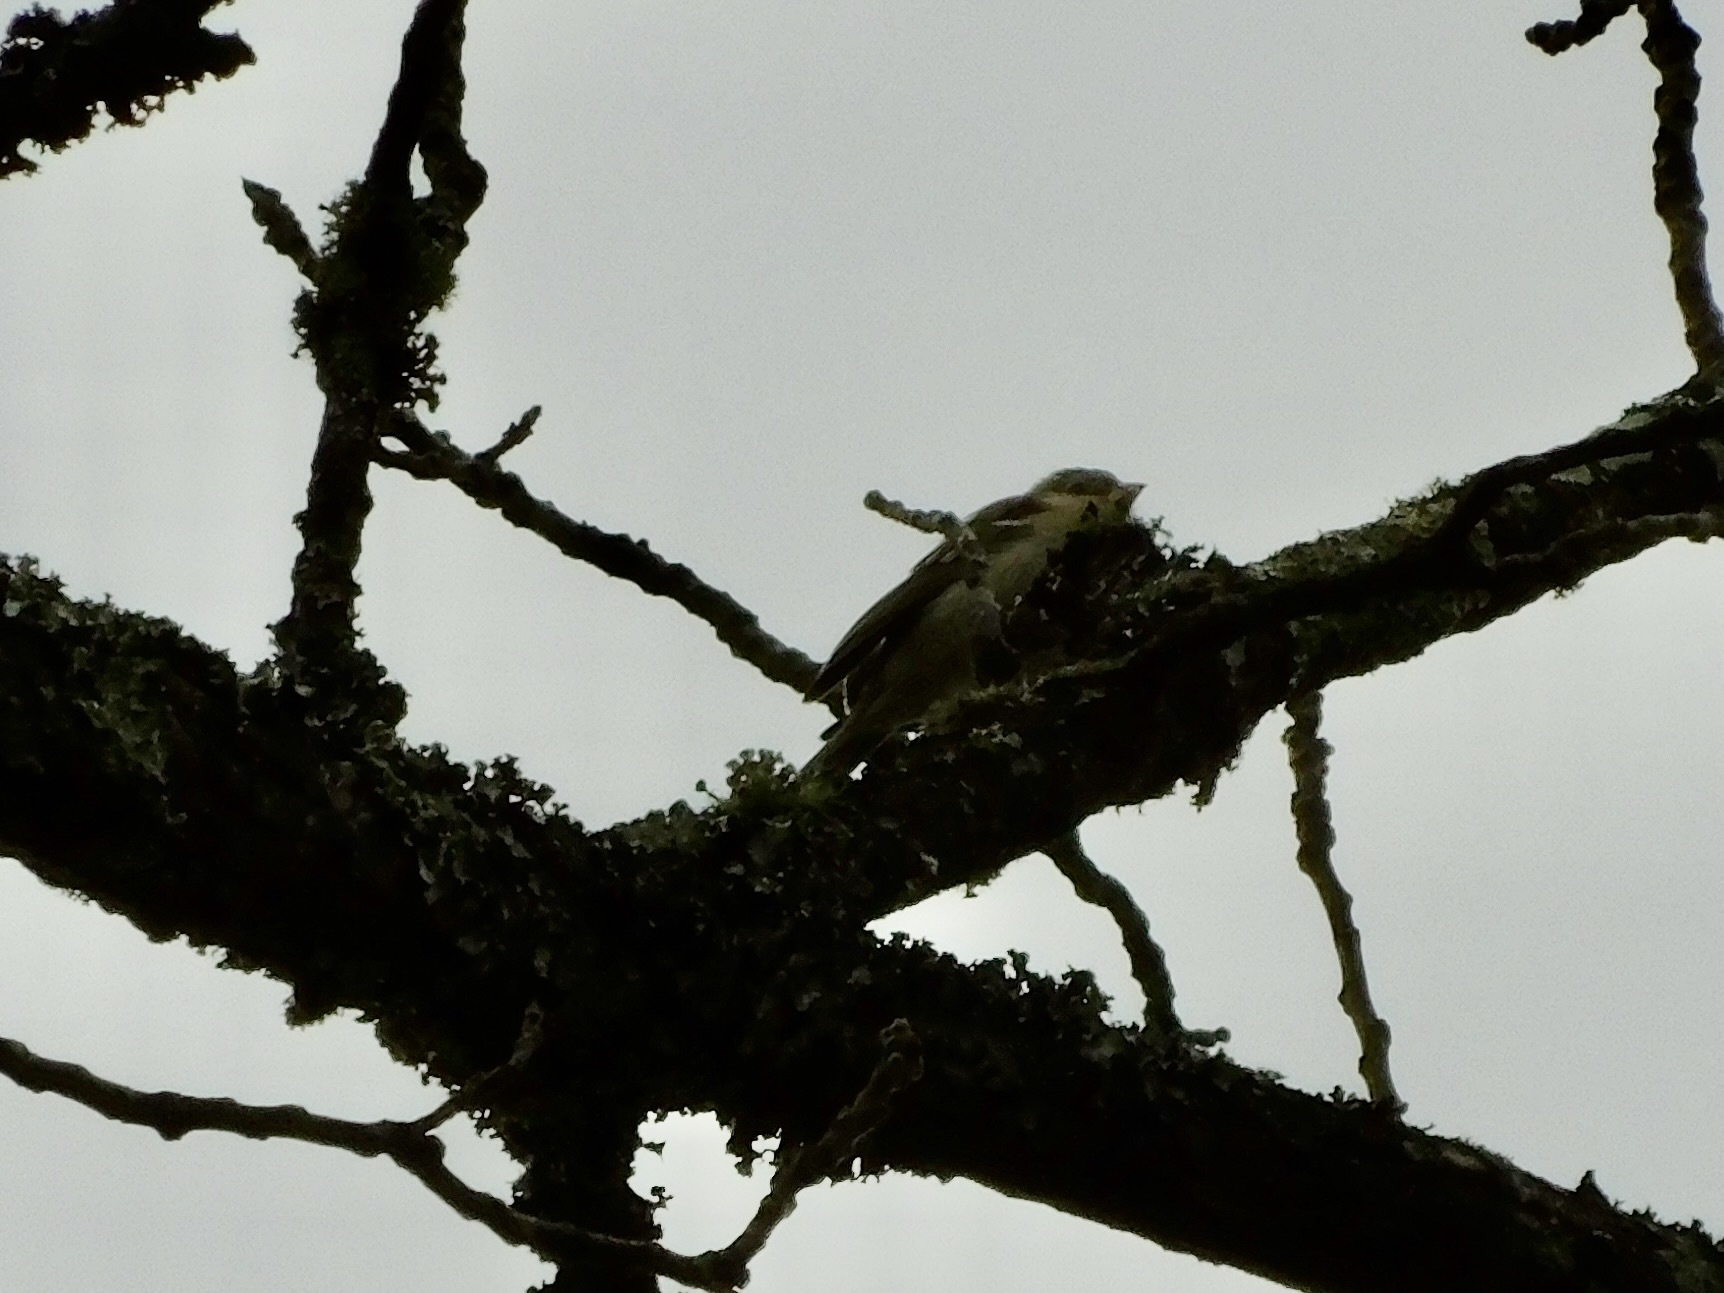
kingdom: Animalia
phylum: Chordata
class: Aves
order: Passeriformes
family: Passerellidae
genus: Spizella
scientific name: Spizella pusilla
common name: Field sparrow
